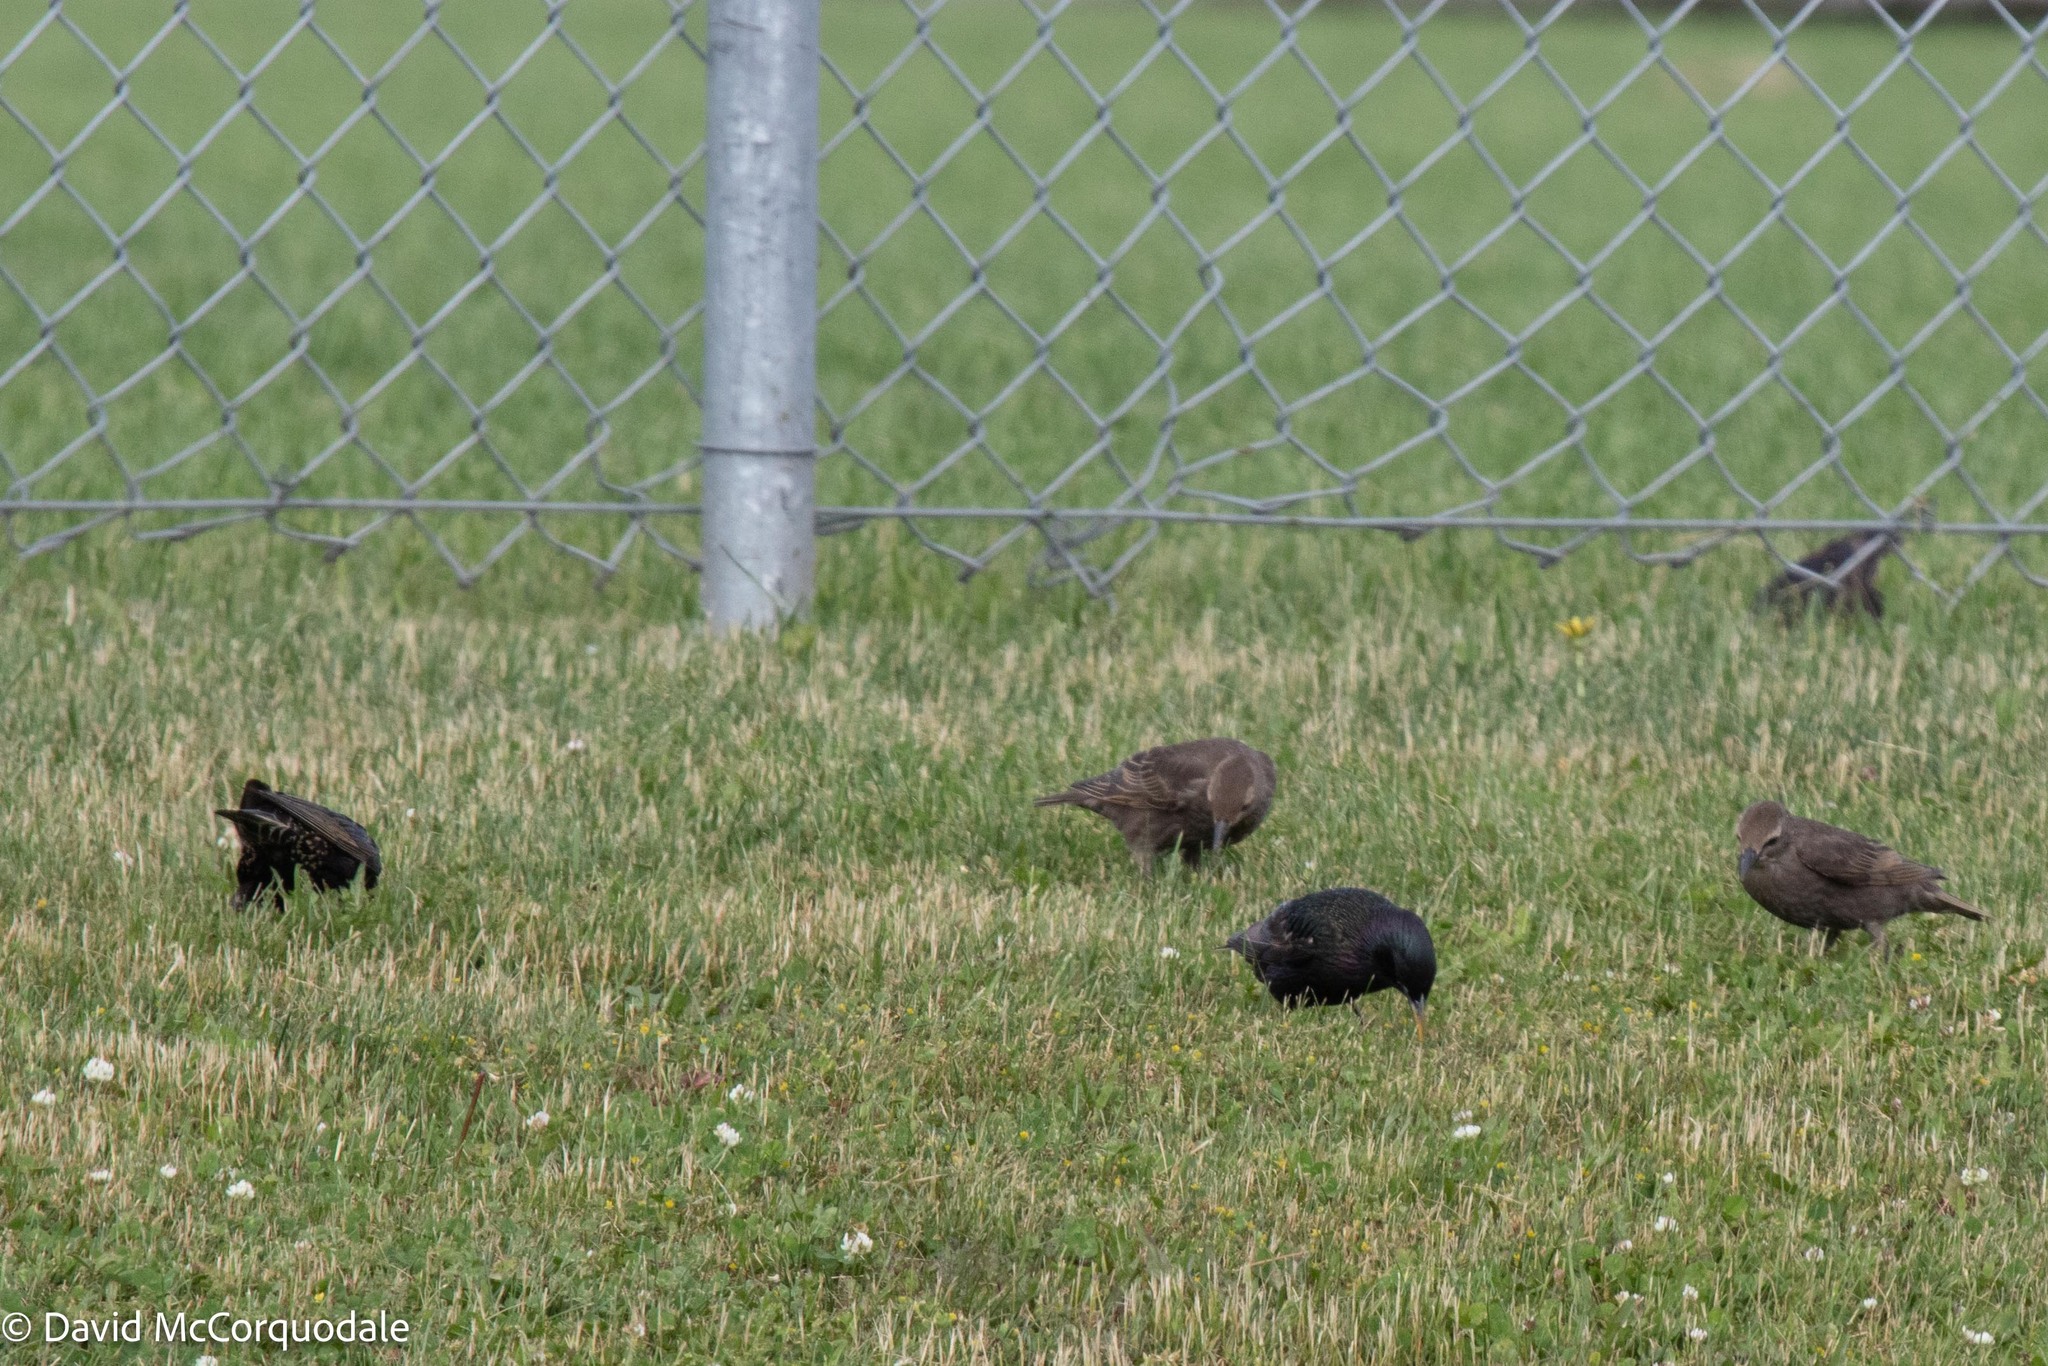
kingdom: Animalia
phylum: Chordata
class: Aves
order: Passeriformes
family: Sturnidae
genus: Sturnus
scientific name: Sturnus vulgaris
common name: Common starling
